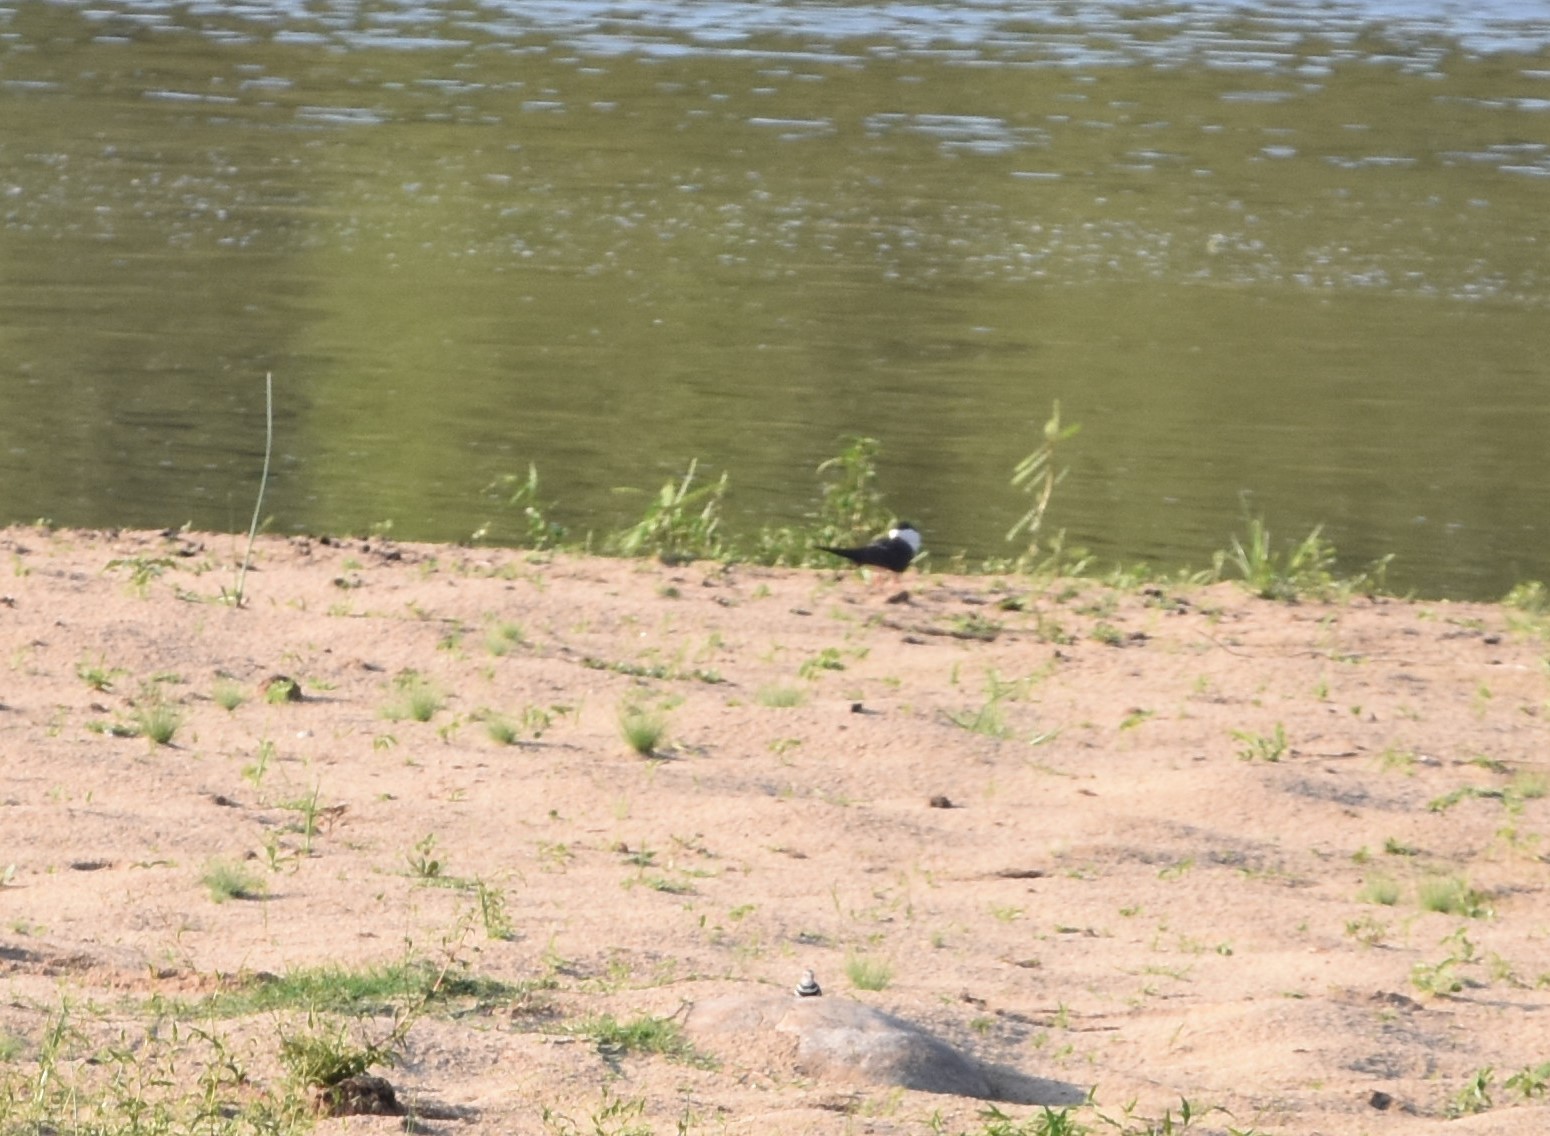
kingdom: Animalia
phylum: Chordata
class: Aves
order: Charadriiformes
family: Laridae
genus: Rynchops
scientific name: Rynchops flavirostris
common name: African skimmer
